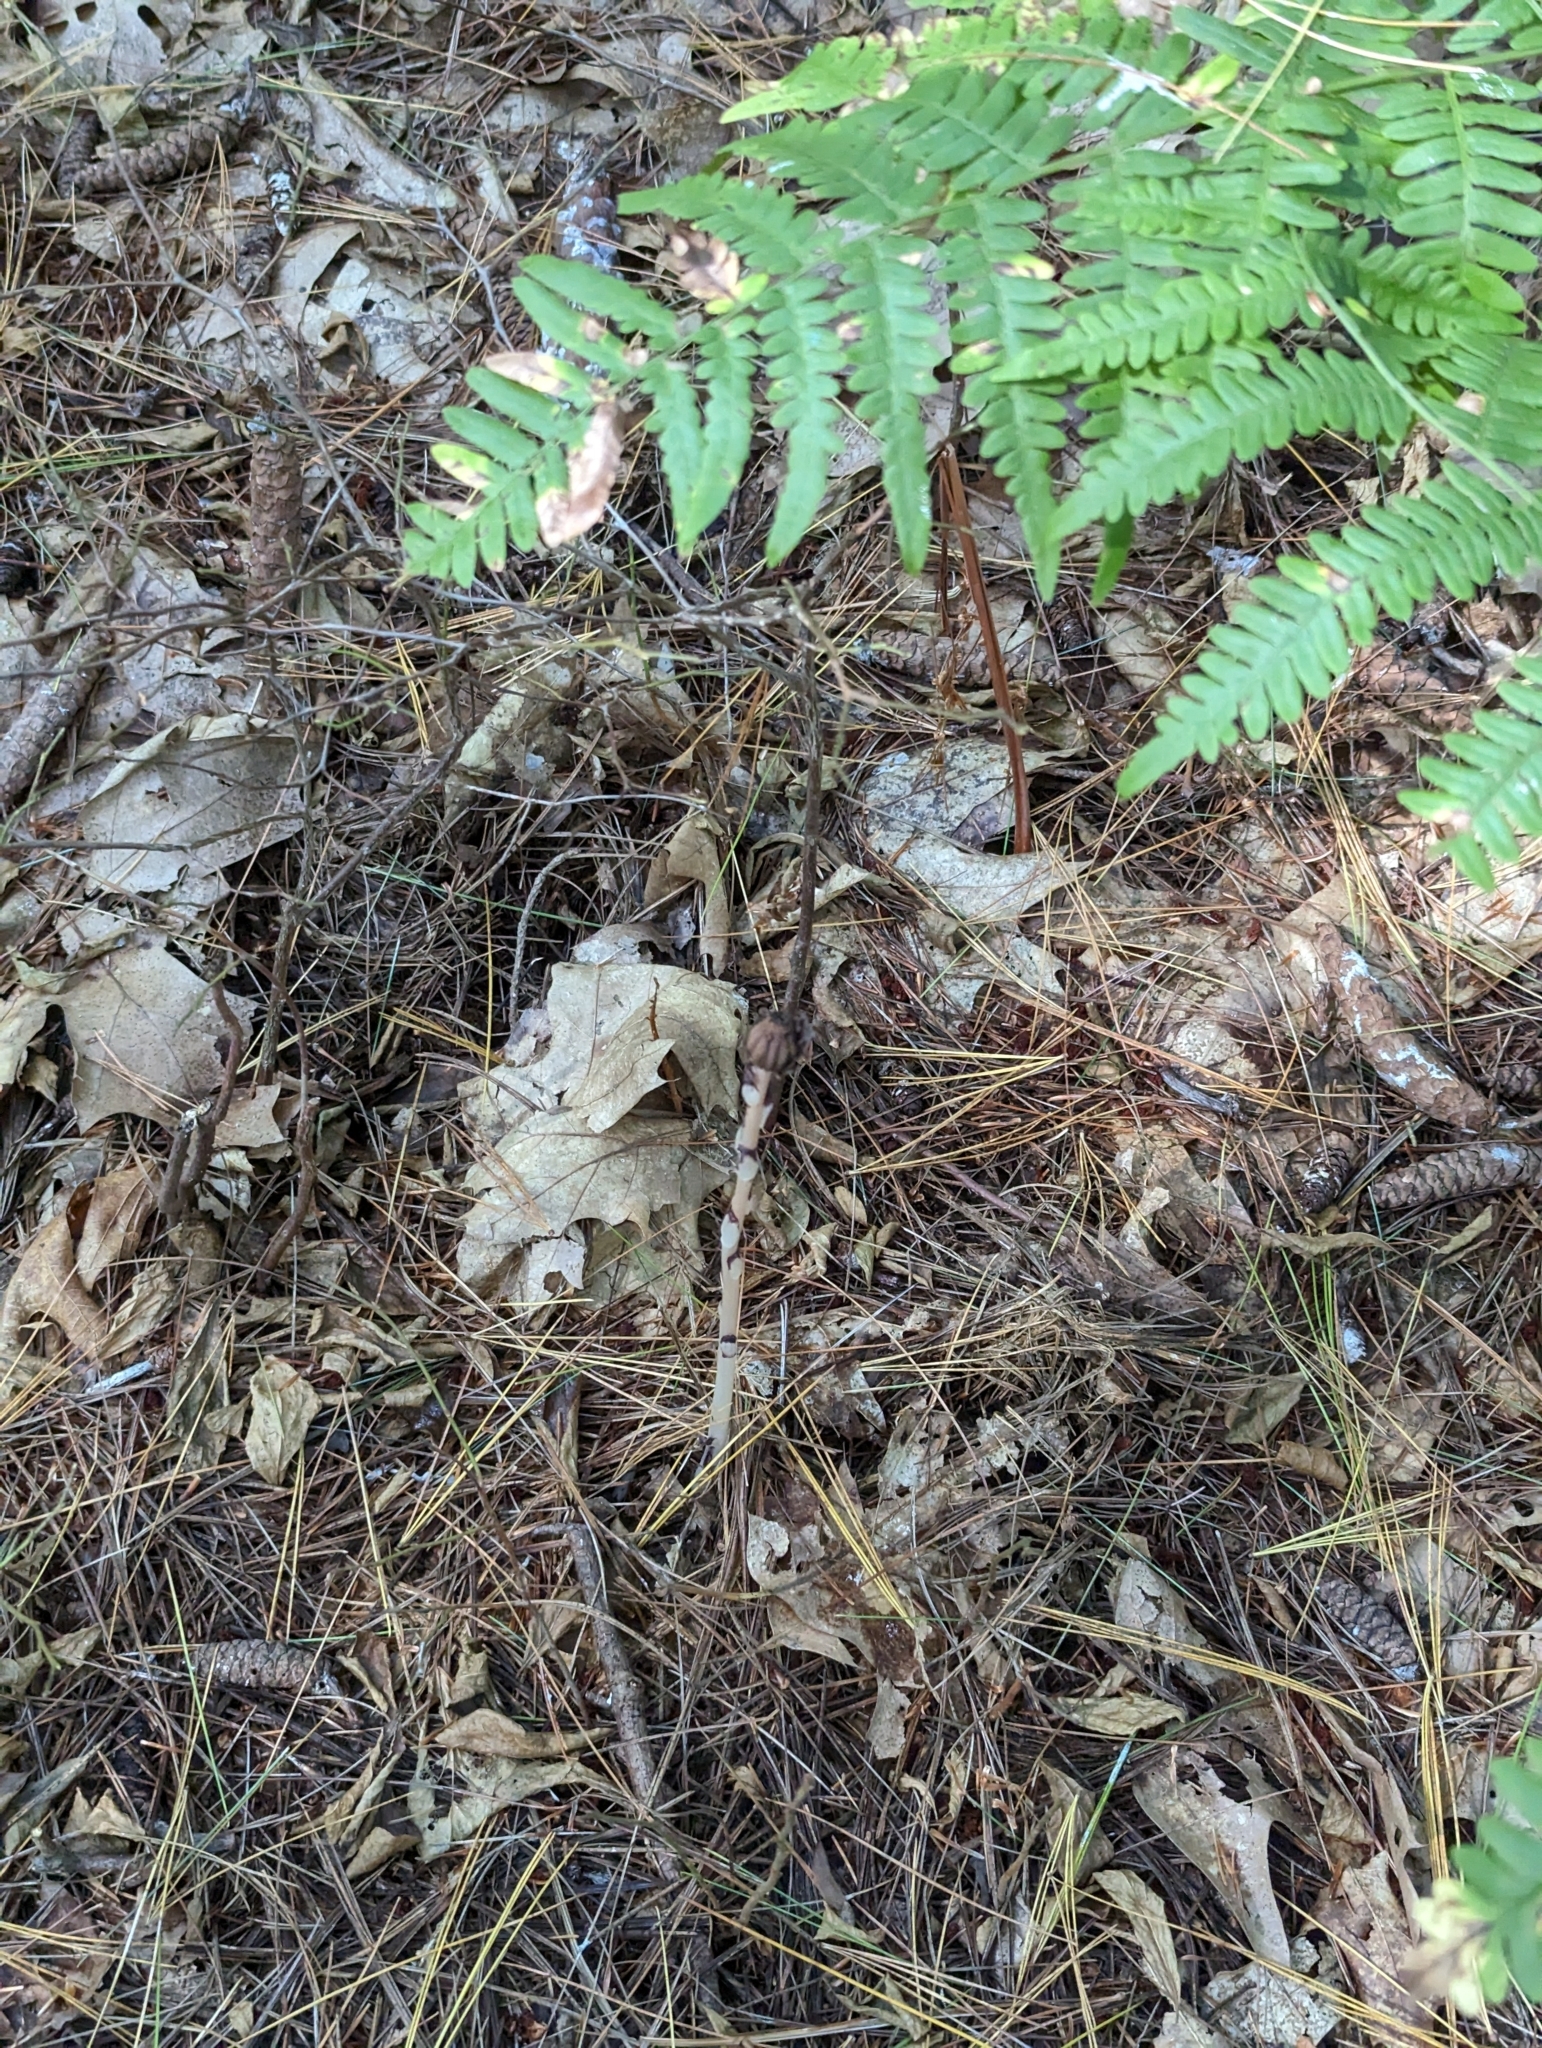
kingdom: Plantae
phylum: Tracheophyta
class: Magnoliopsida
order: Ericales
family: Ericaceae
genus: Monotropa
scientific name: Monotropa uniflora
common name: Convulsion root
